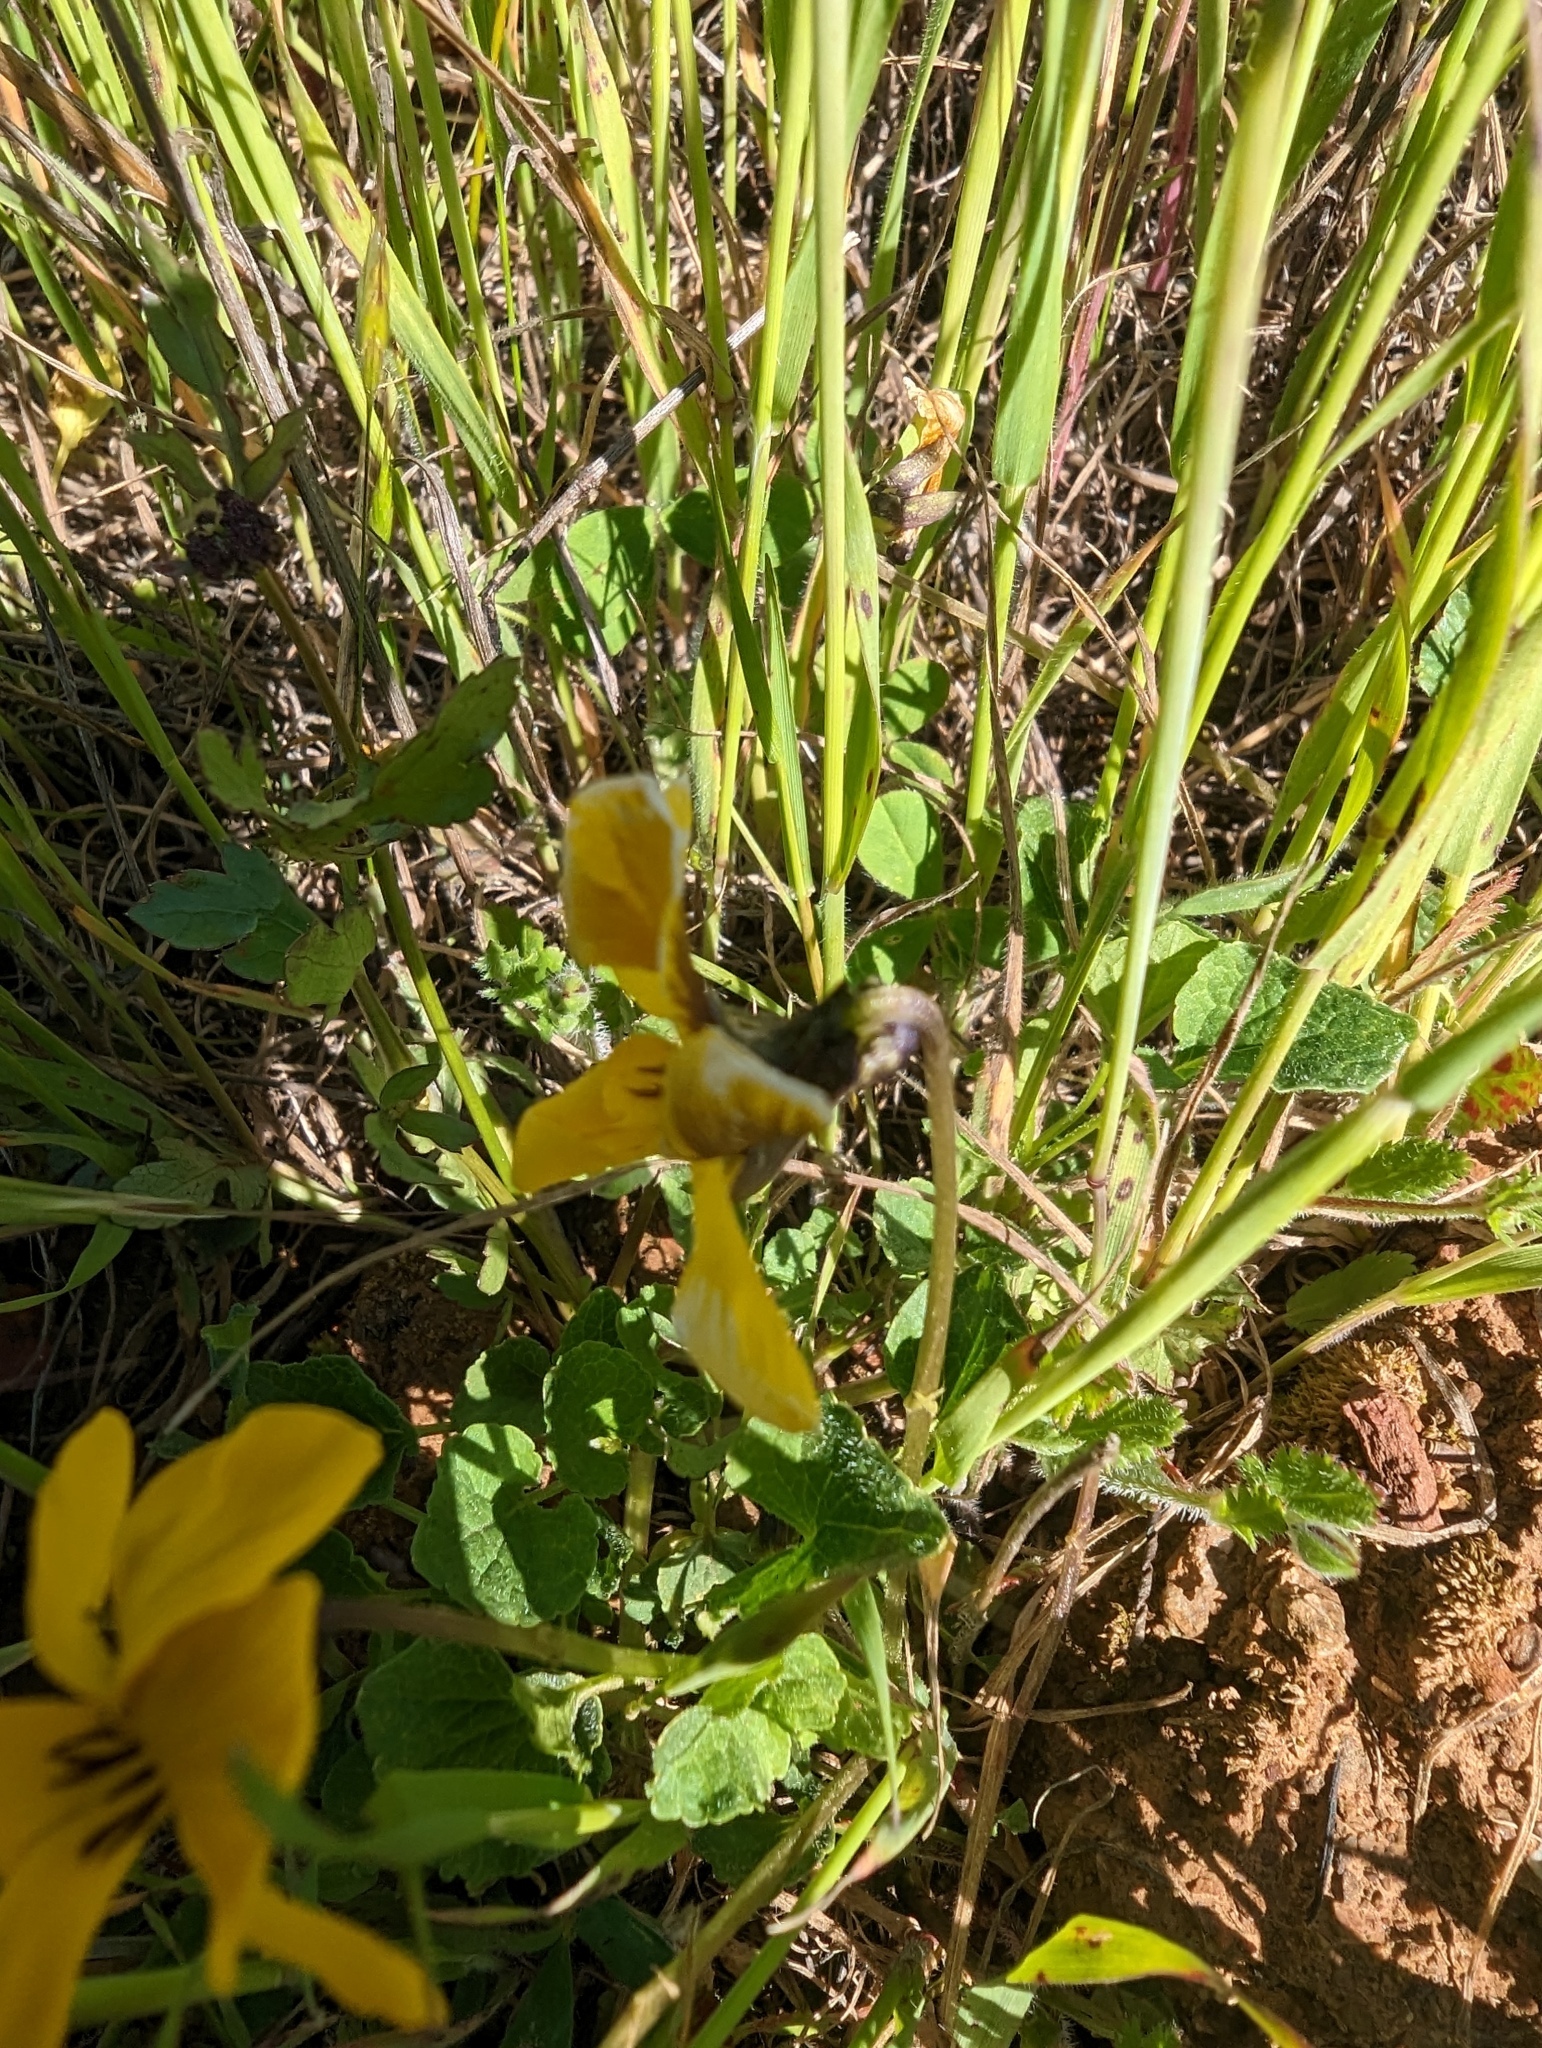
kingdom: Plantae
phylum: Tracheophyta
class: Magnoliopsida
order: Malpighiales
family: Violaceae
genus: Viola
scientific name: Viola pedunculata
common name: California golden violet
